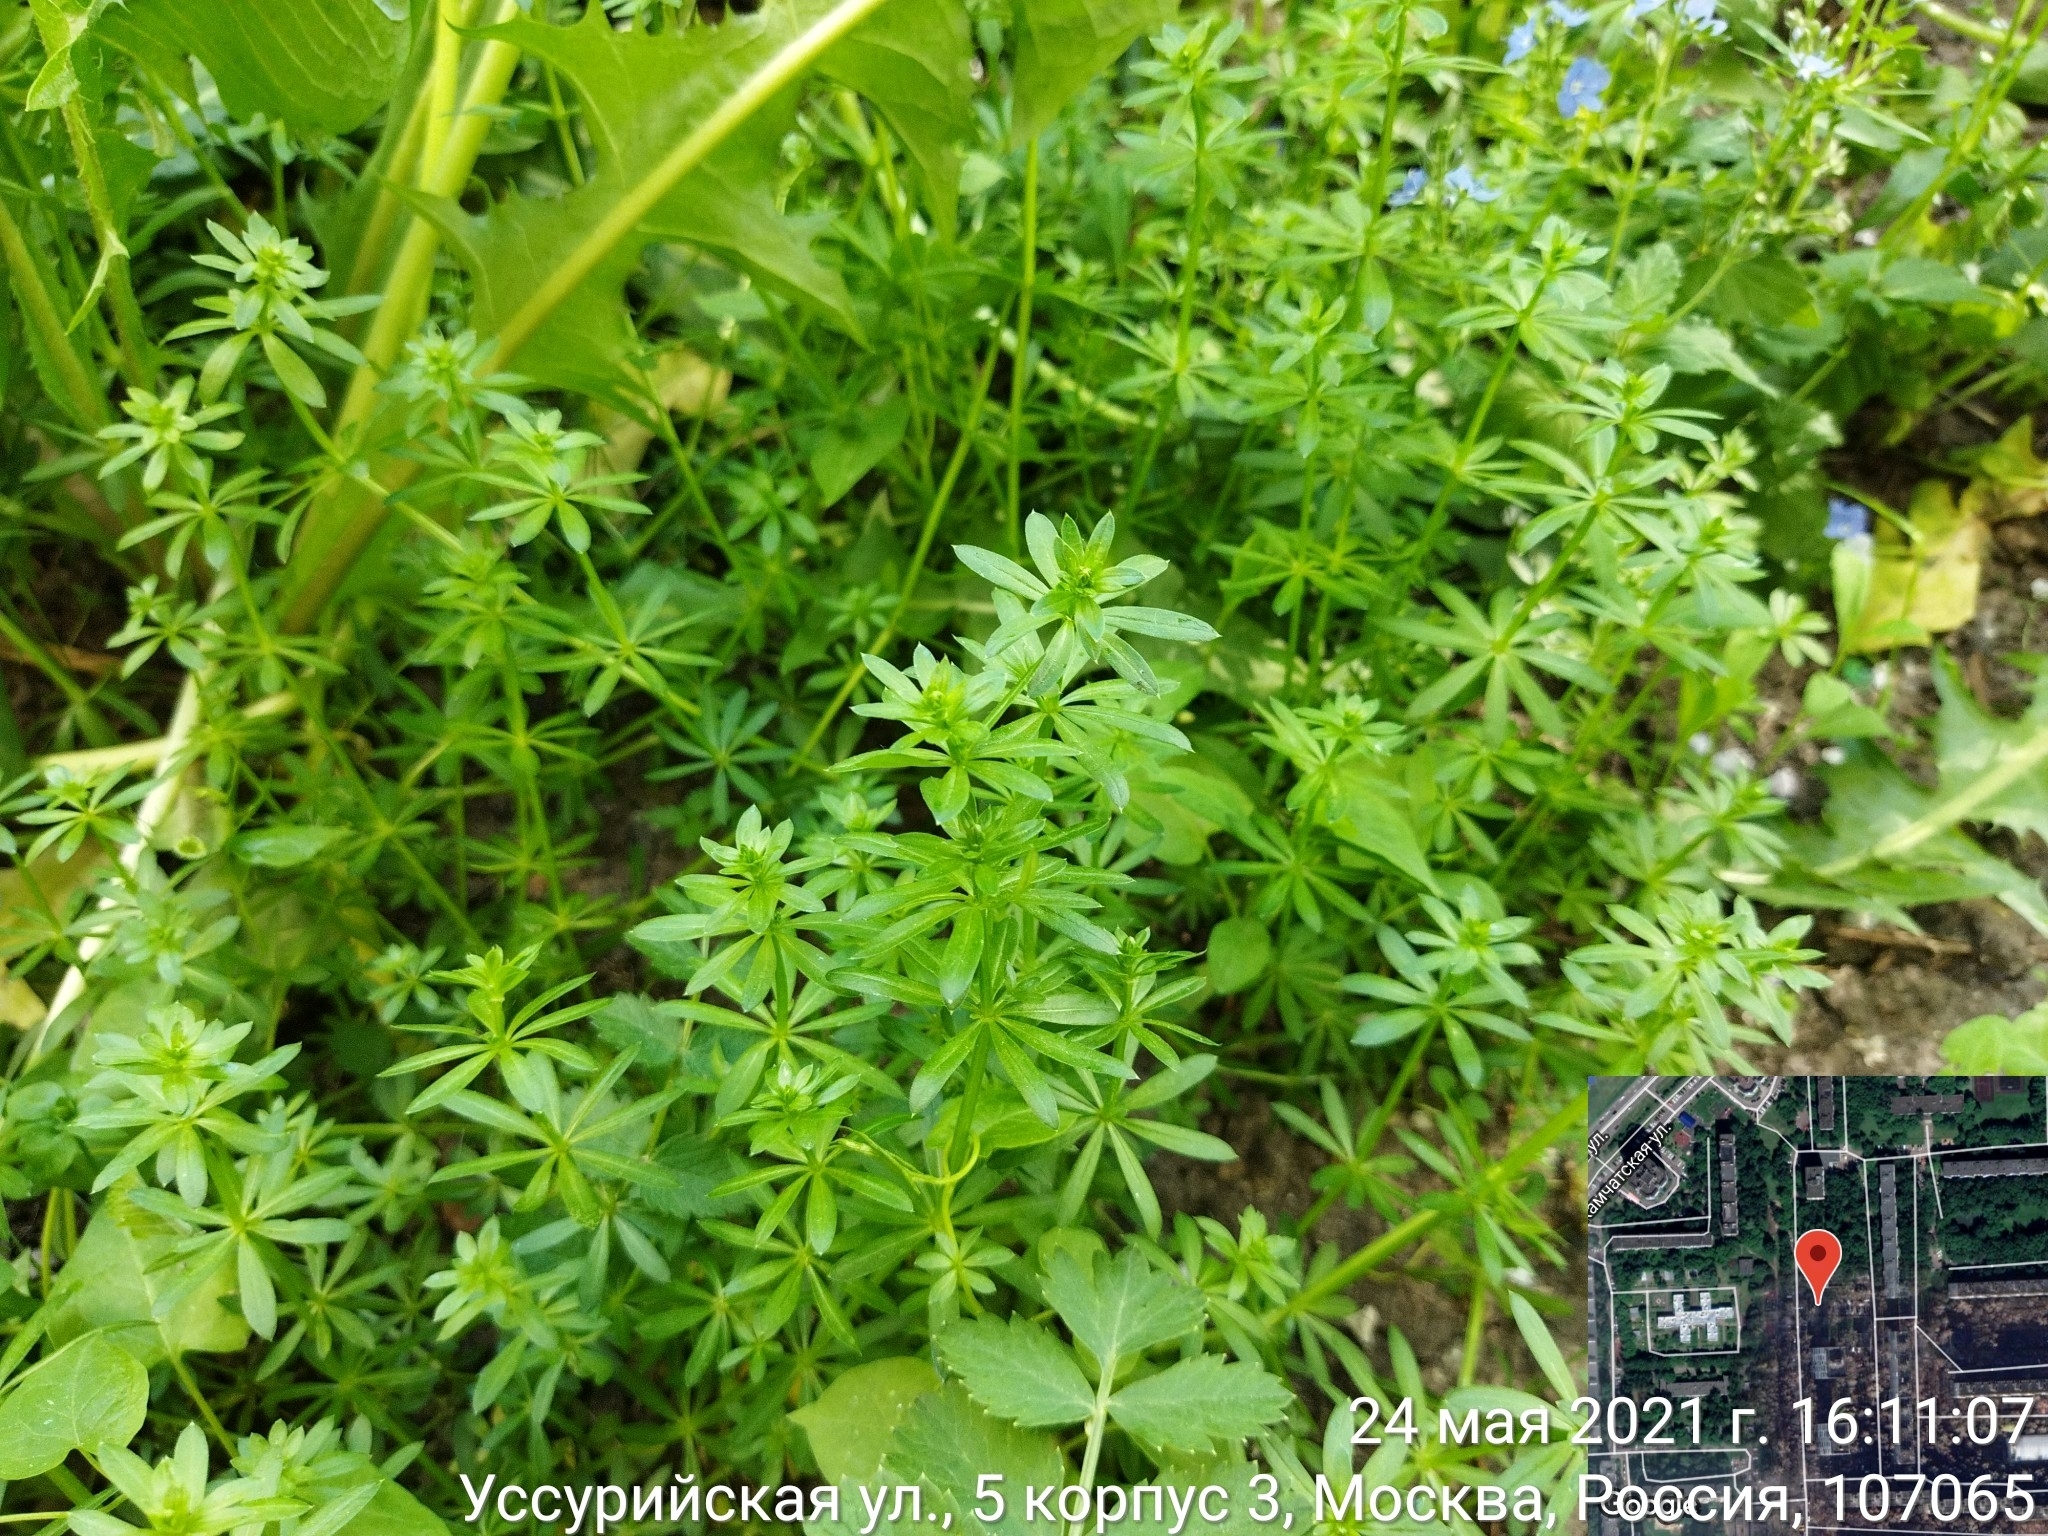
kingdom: Plantae
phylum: Tracheophyta
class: Magnoliopsida
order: Gentianales
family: Rubiaceae
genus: Galium
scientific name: Galium mollugo
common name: Hedge bedstraw
